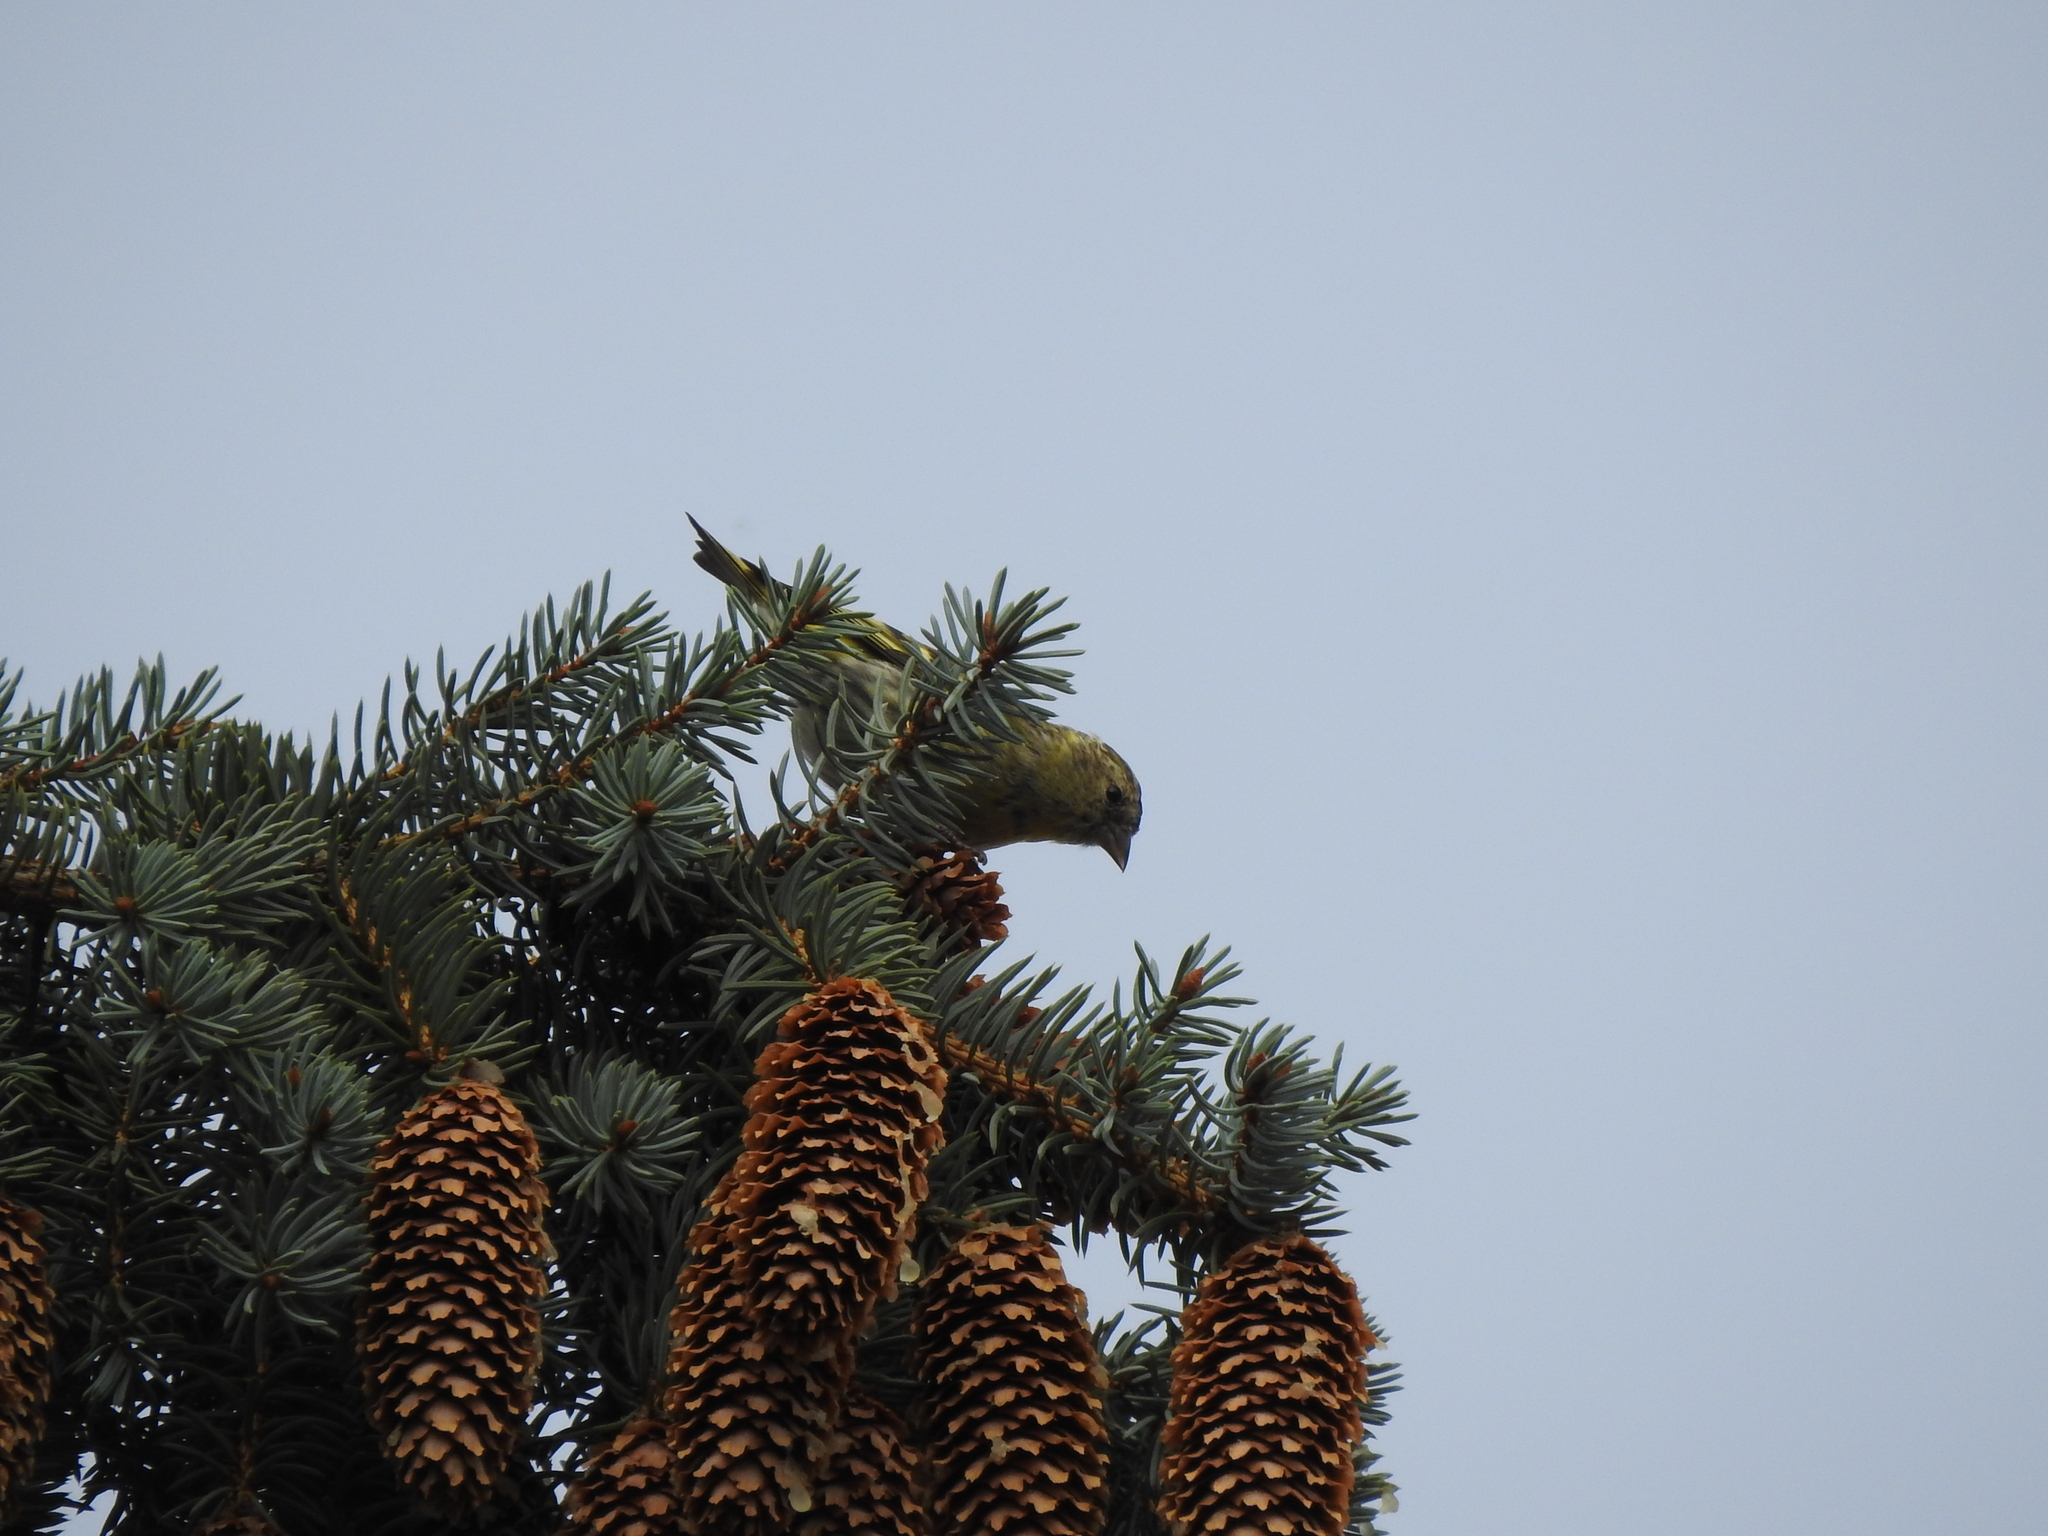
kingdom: Animalia
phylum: Chordata
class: Aves
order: Passeriformes
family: Fringillidae
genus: Spinus
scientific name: Spinus spinus
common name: Eurasian siskin
